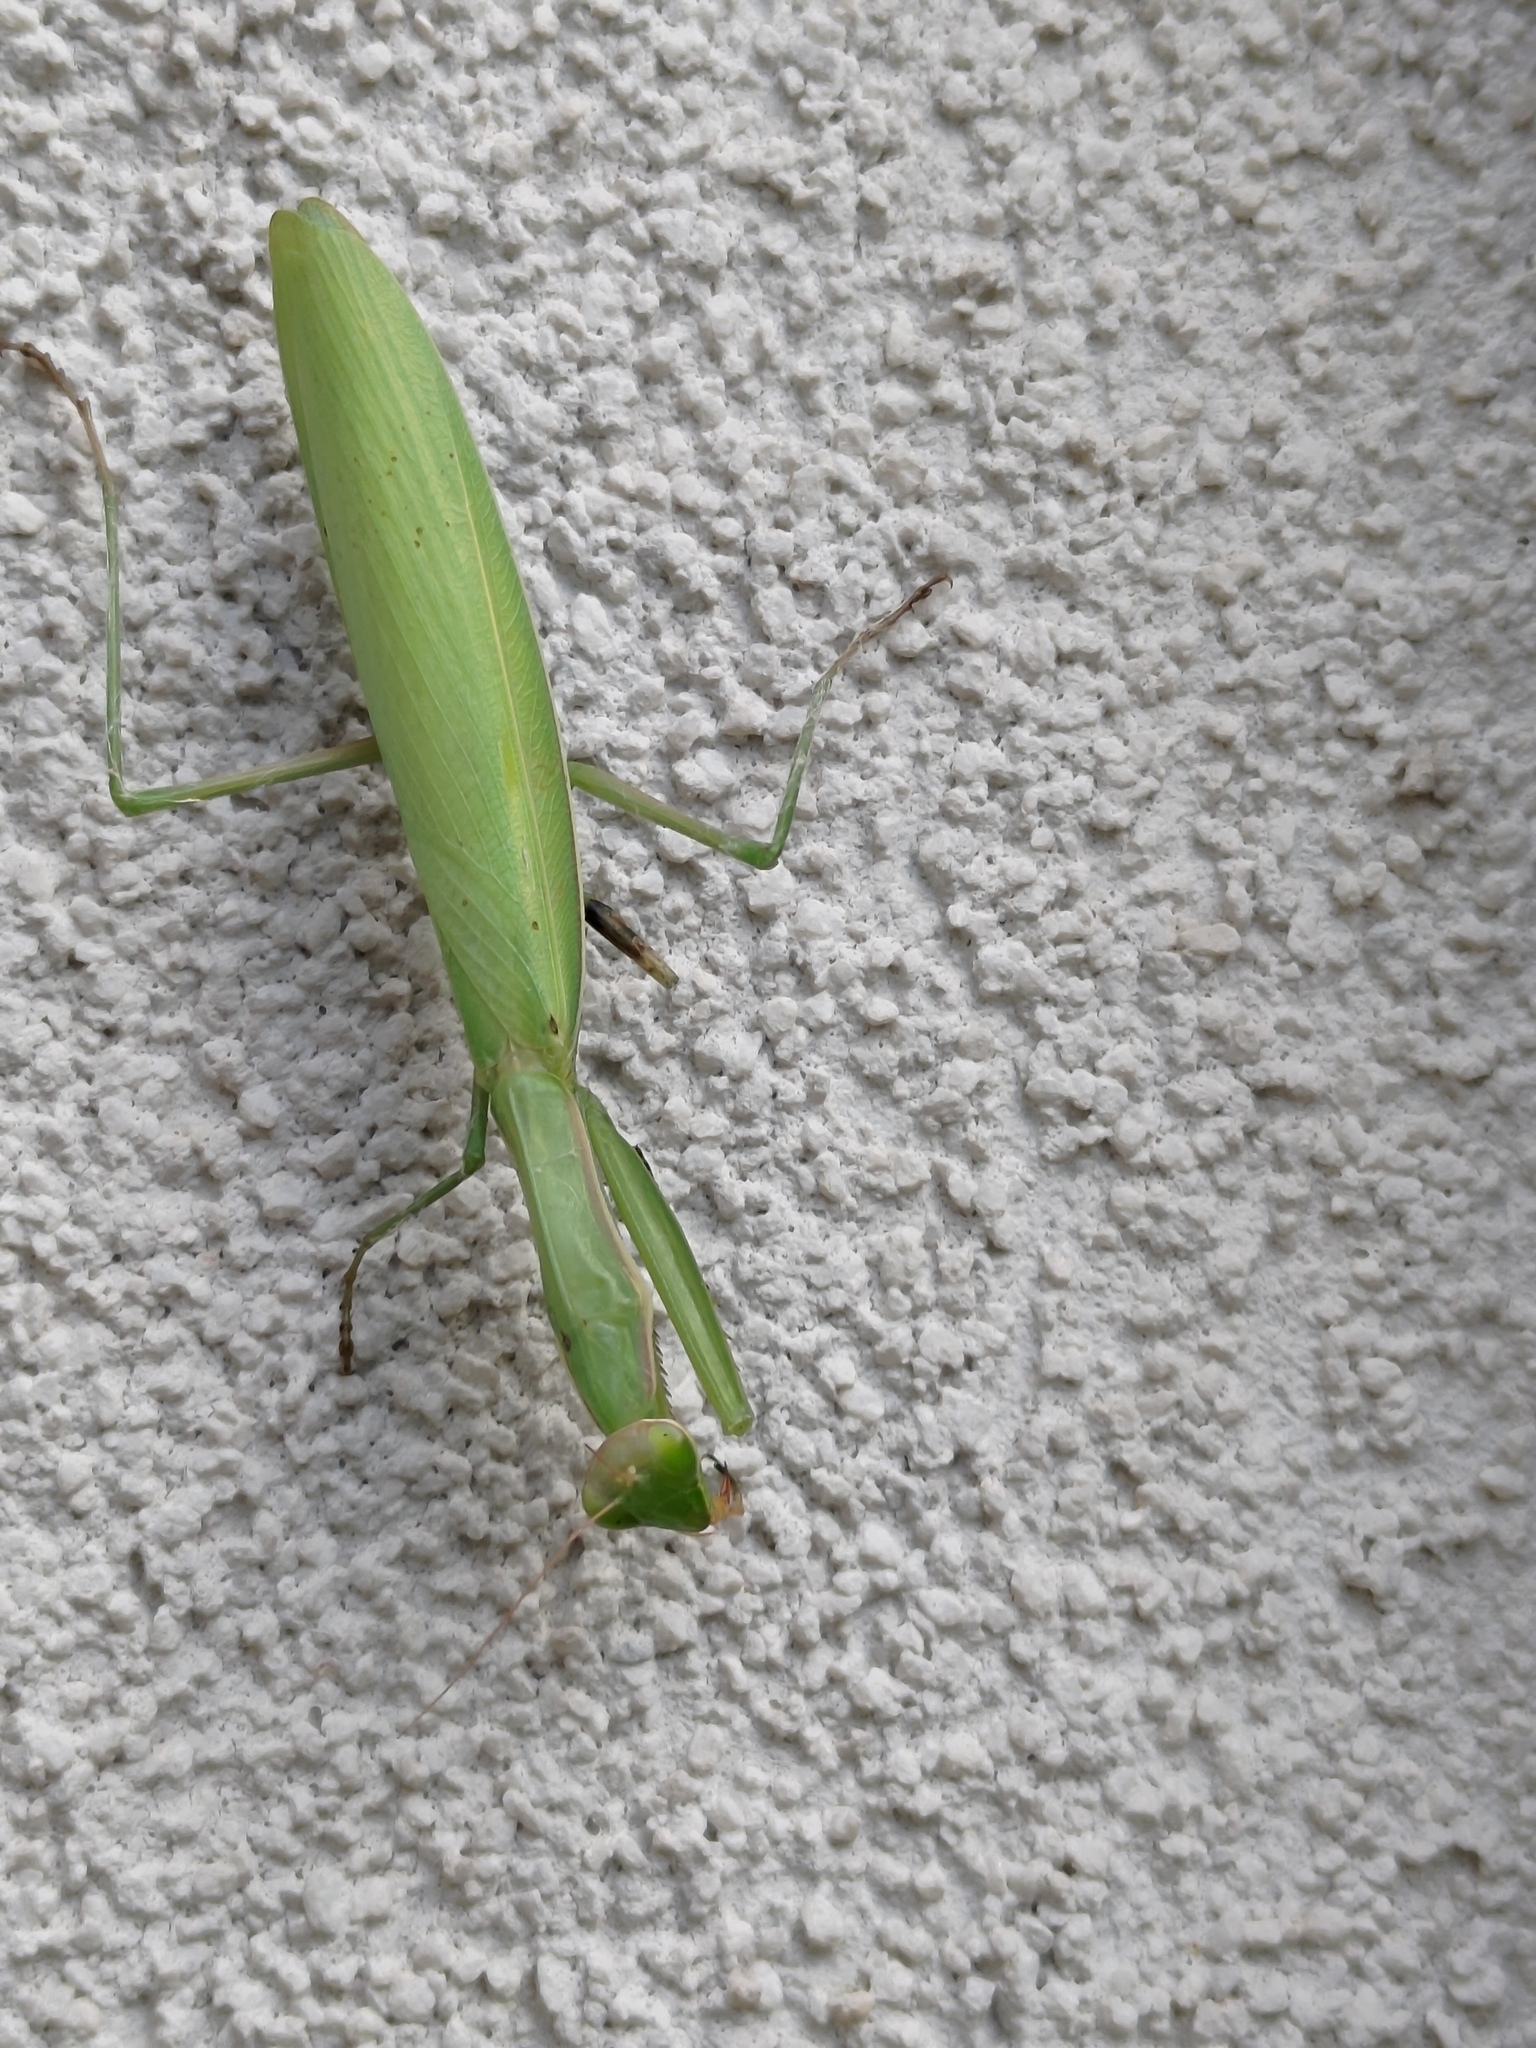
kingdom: Animalia
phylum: Arthropoda
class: Insecta
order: Mantodea
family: Mantidae
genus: Mantis
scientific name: Mantis religiosa
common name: Praying mantis
